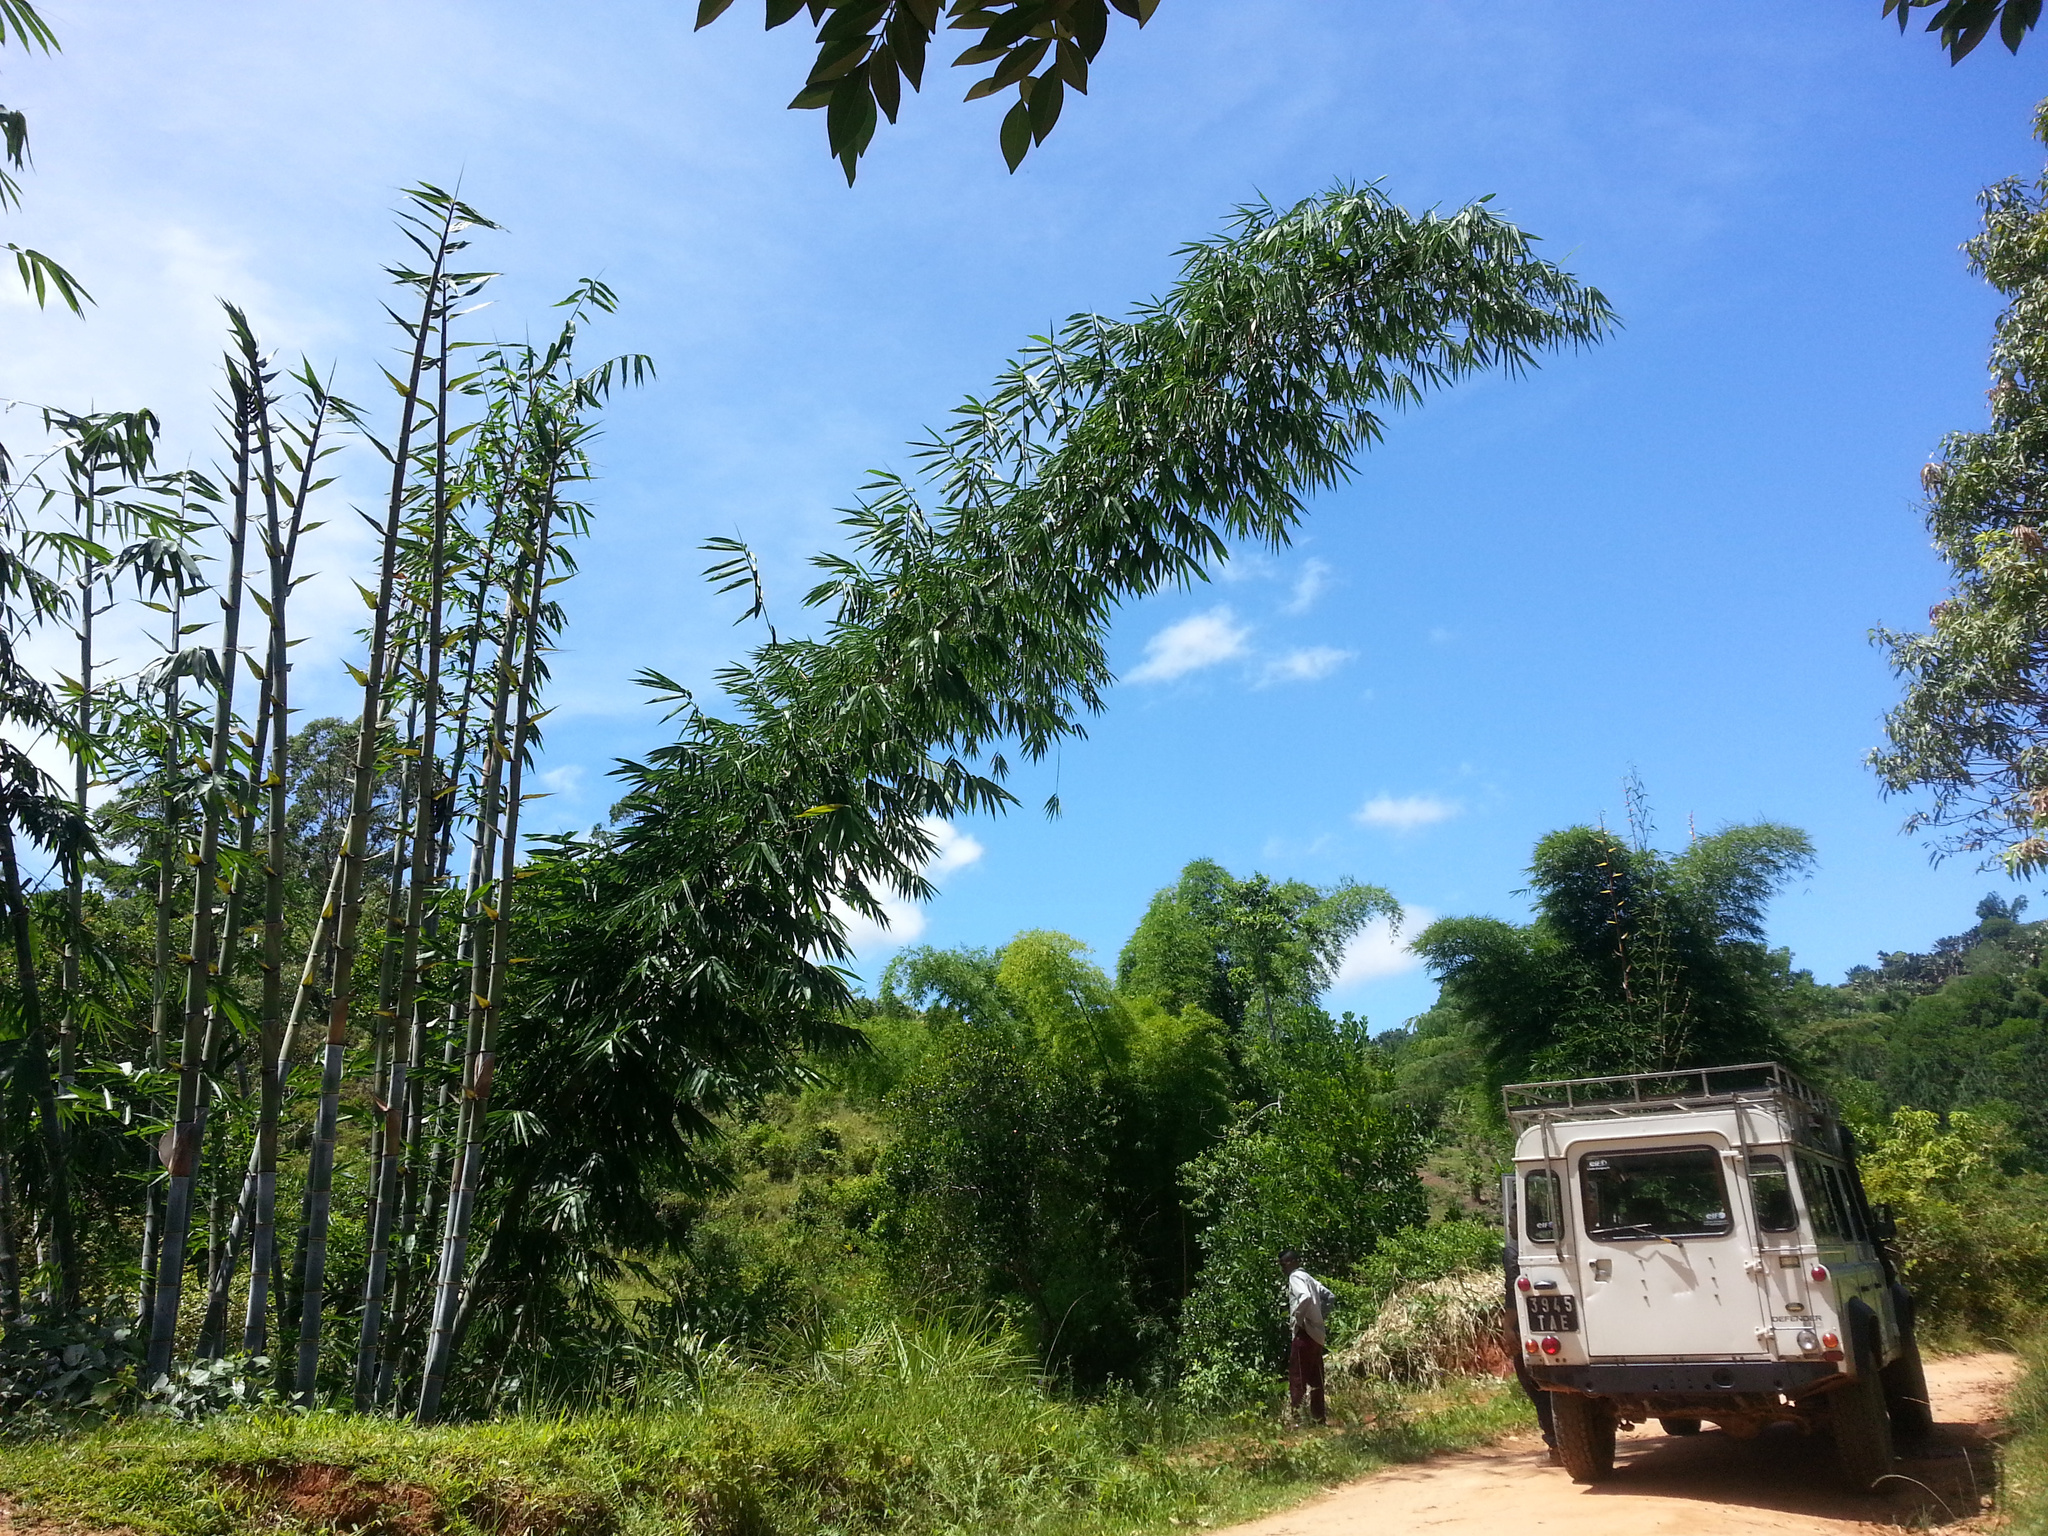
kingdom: Plantae
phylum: Tracheophyta
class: Liliopsida
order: Poales
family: Poaceae
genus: Dendrocalamus
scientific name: Dendrocalamus giganteus
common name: Giant bamboo
